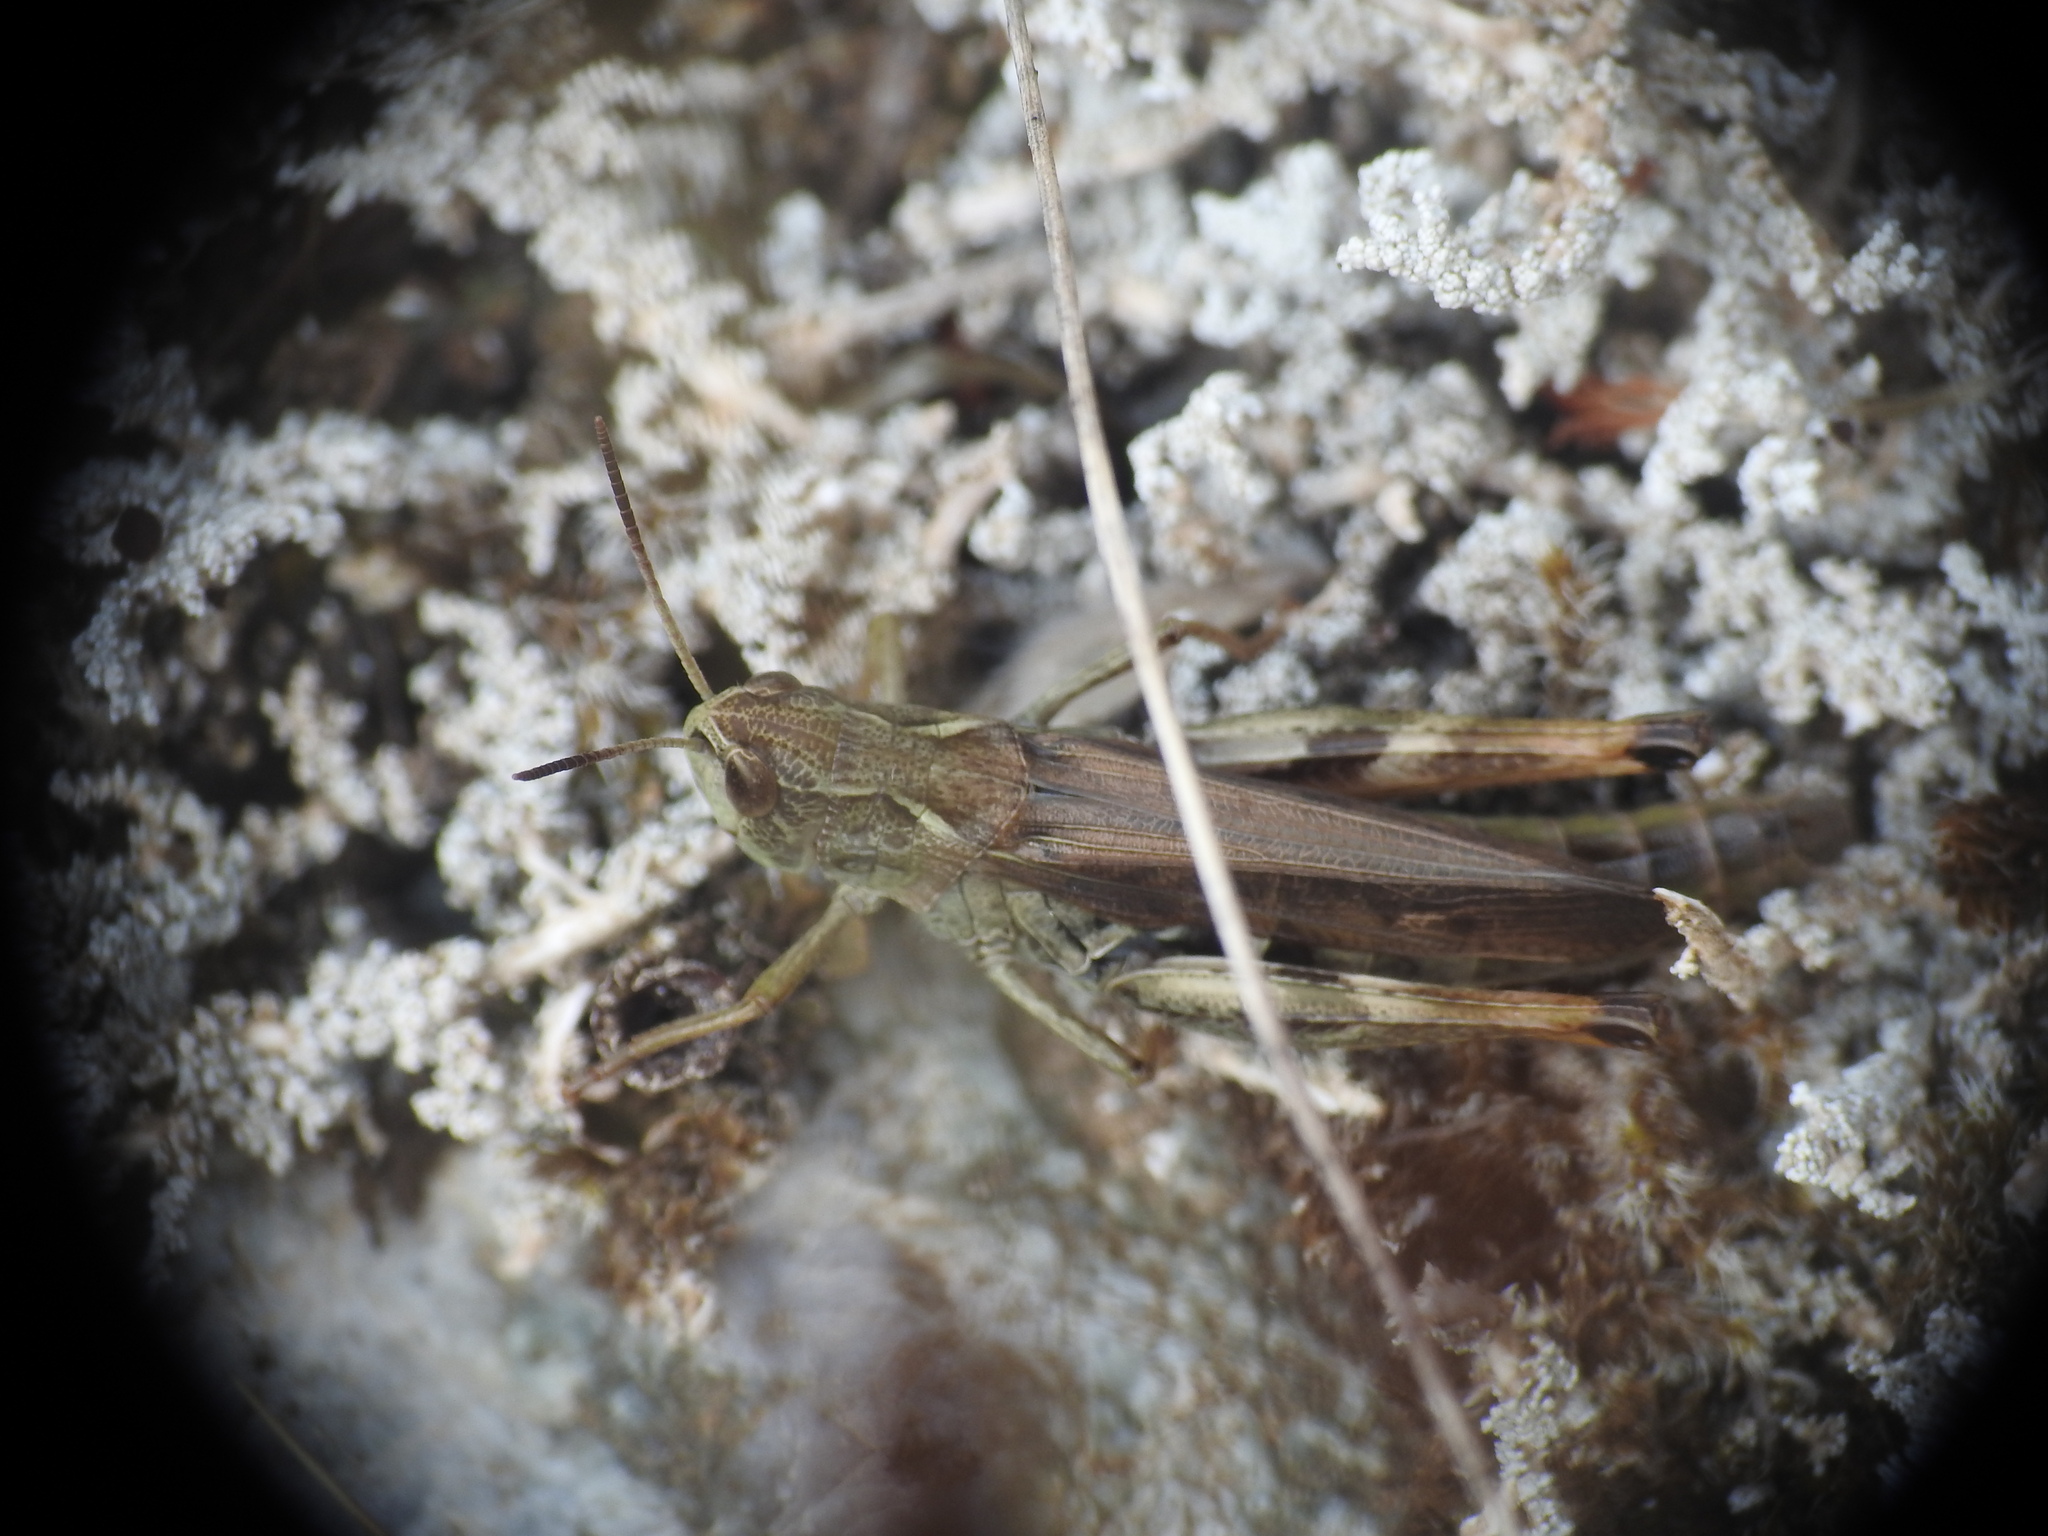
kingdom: Animalia
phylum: Arthropoda
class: Insecta
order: Orthoptera
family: Acrididae
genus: Stauroderus
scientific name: Stauroderus scalaris
